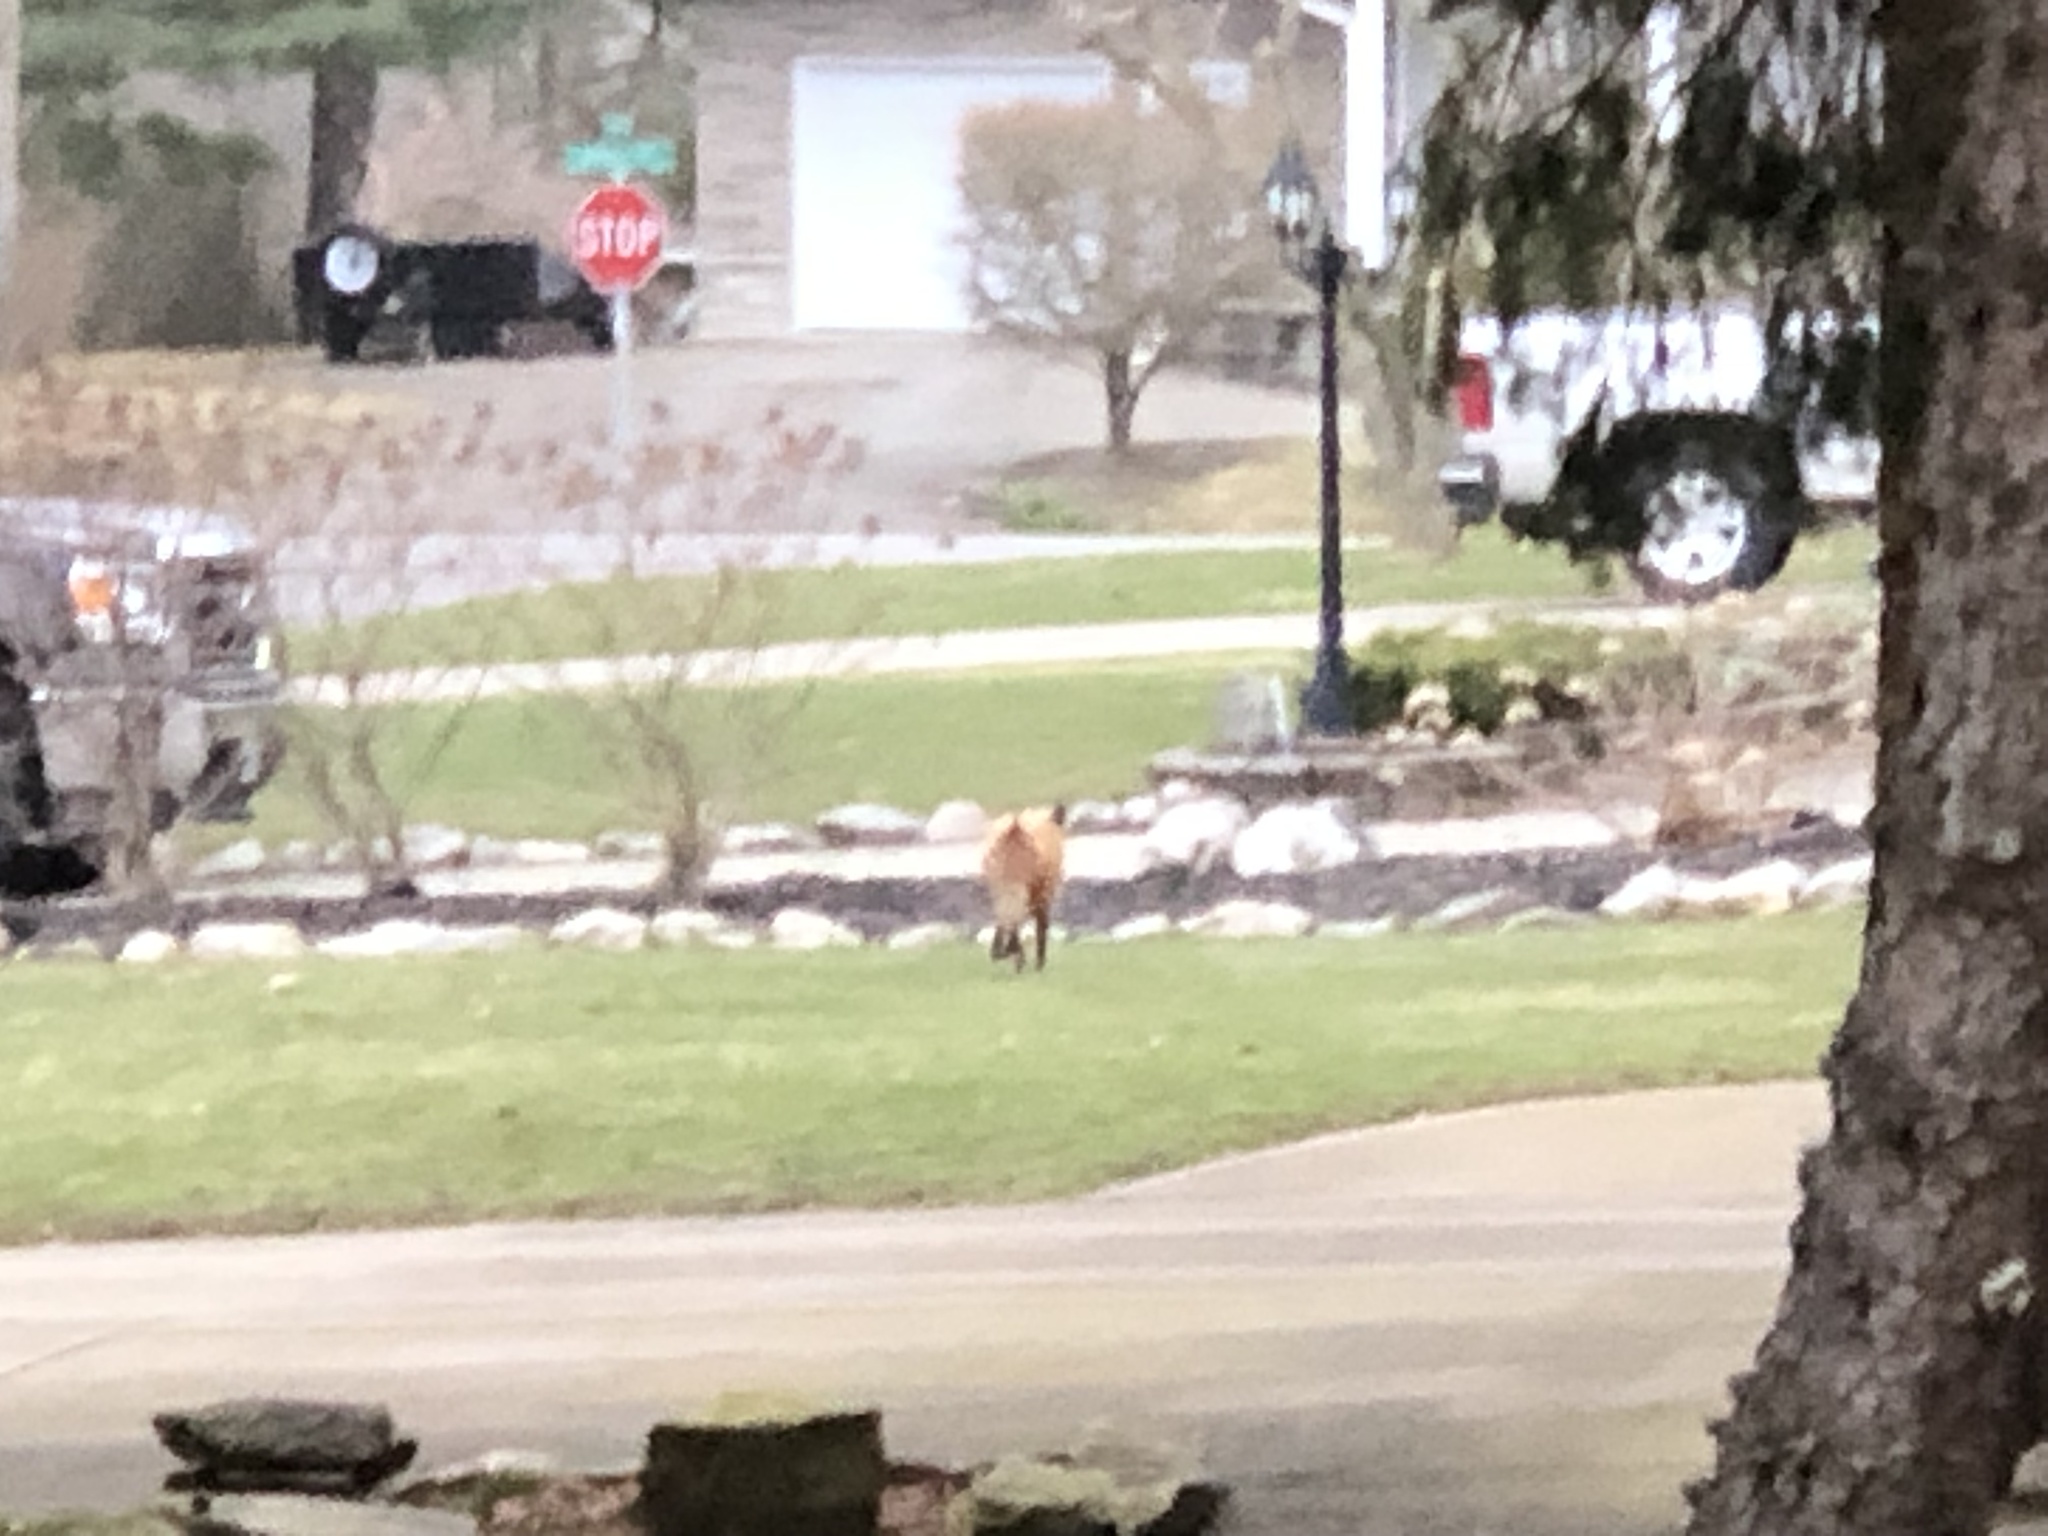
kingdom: Animalia
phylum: Chordata
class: Mammalia
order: Carnivora
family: Canidae
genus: Vulpes
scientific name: Vulpes vulpes
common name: Red fox
